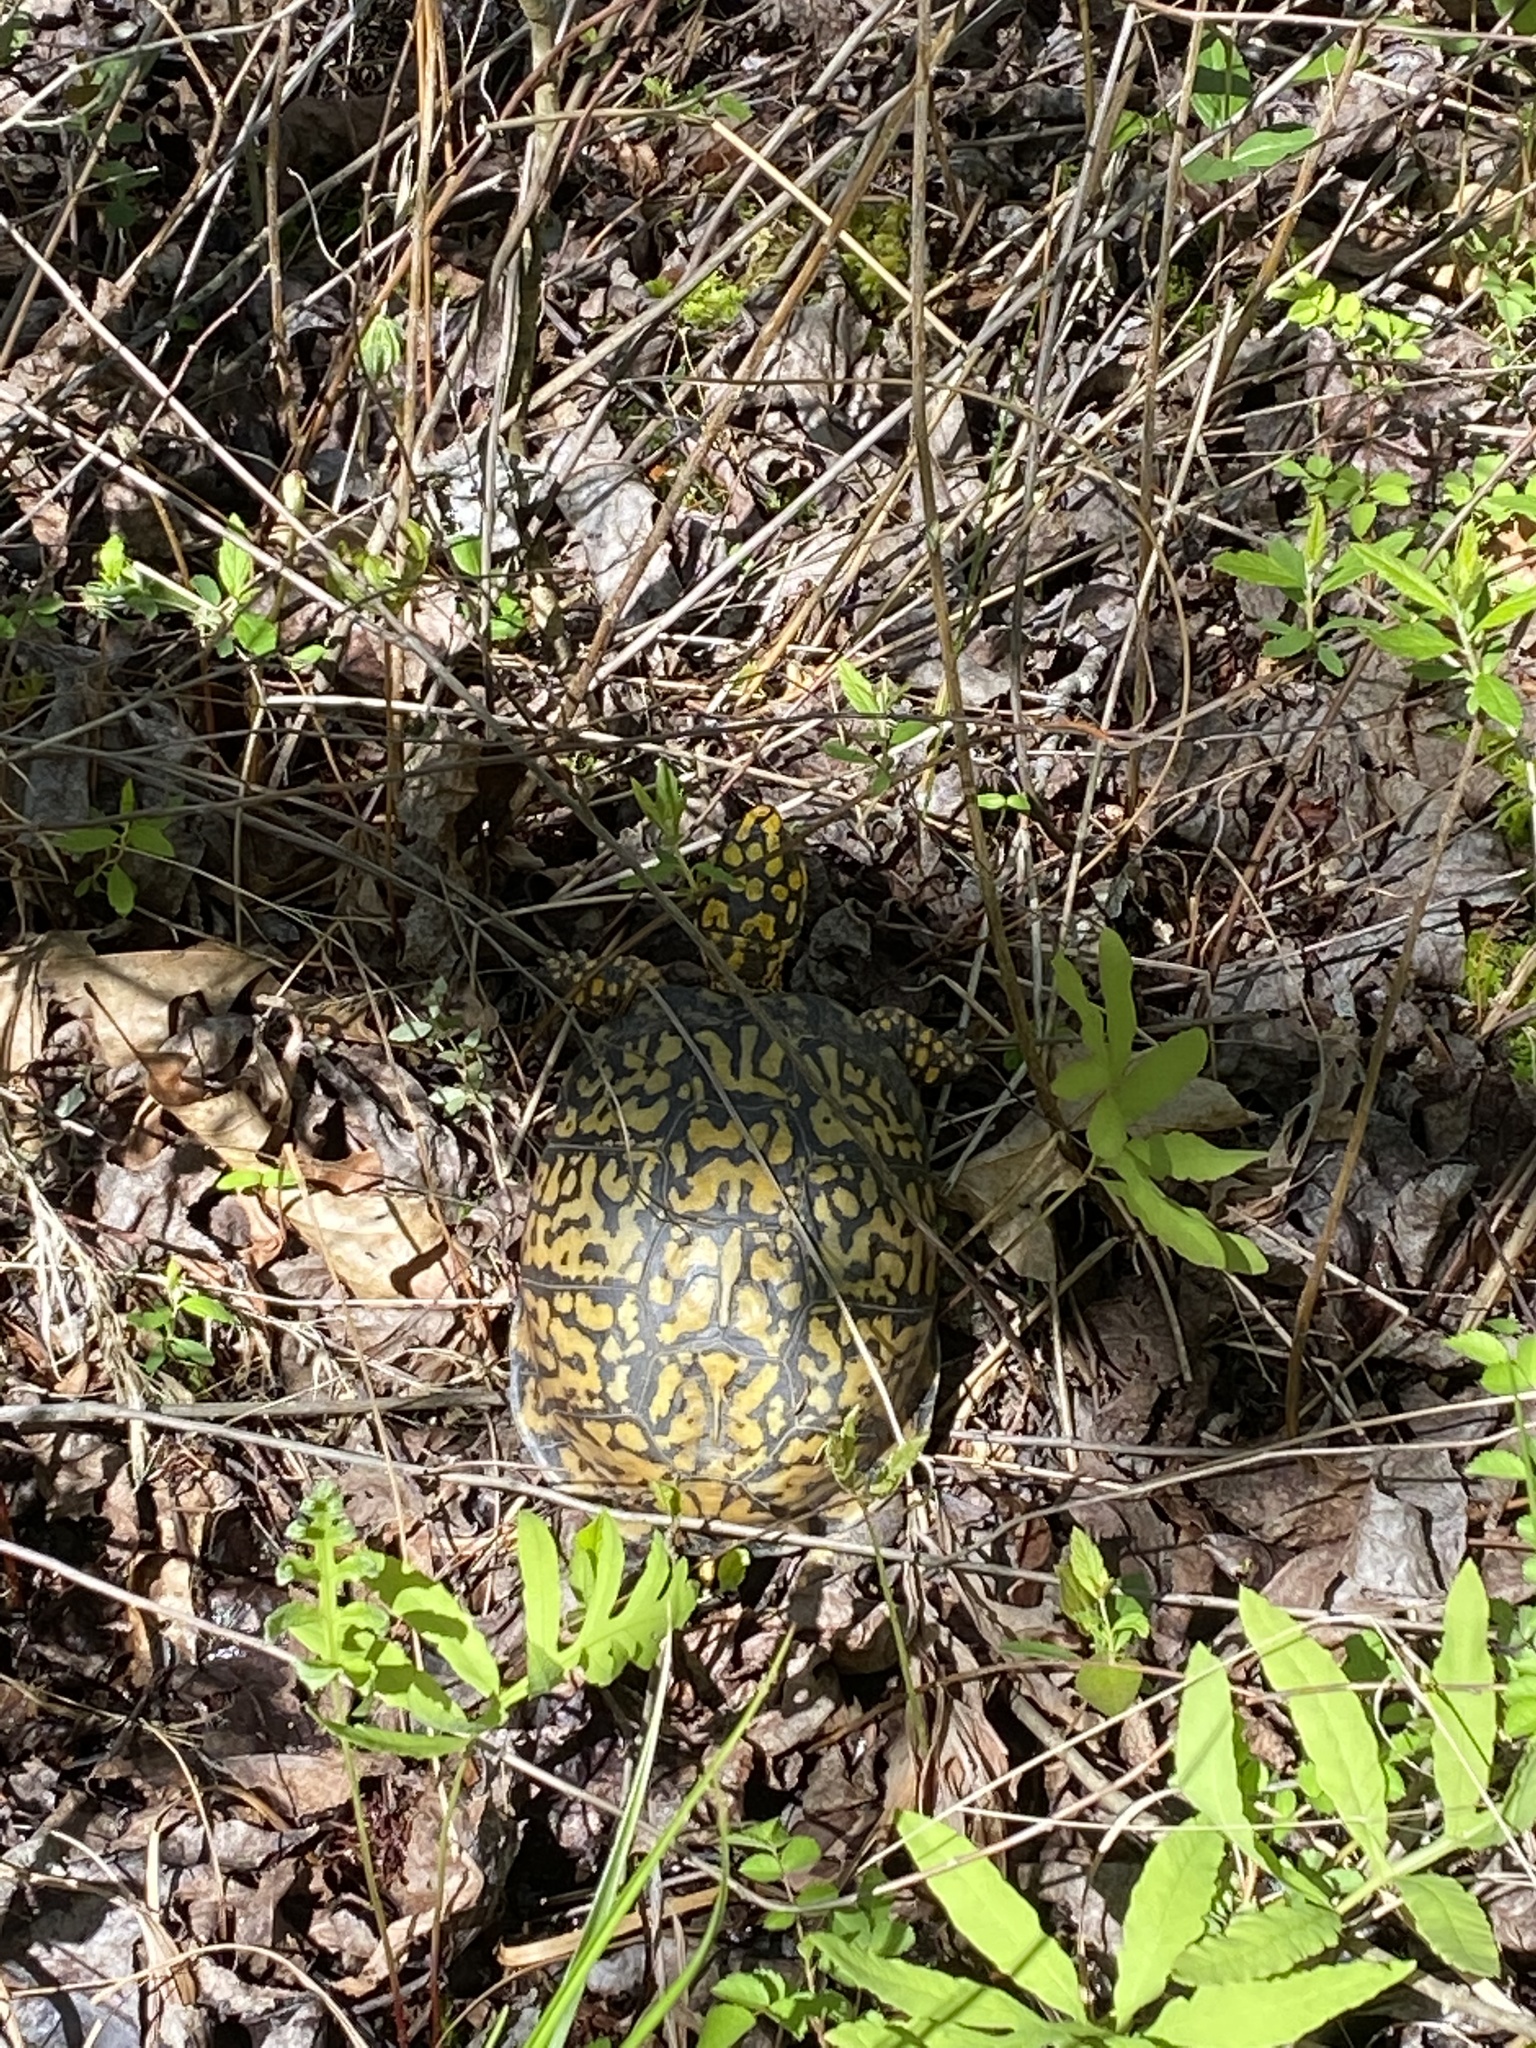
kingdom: Animalia
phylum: Chordata
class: Testudines
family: Emydidae
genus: Terrapene
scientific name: Terrapene carolina
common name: Common box turtle
